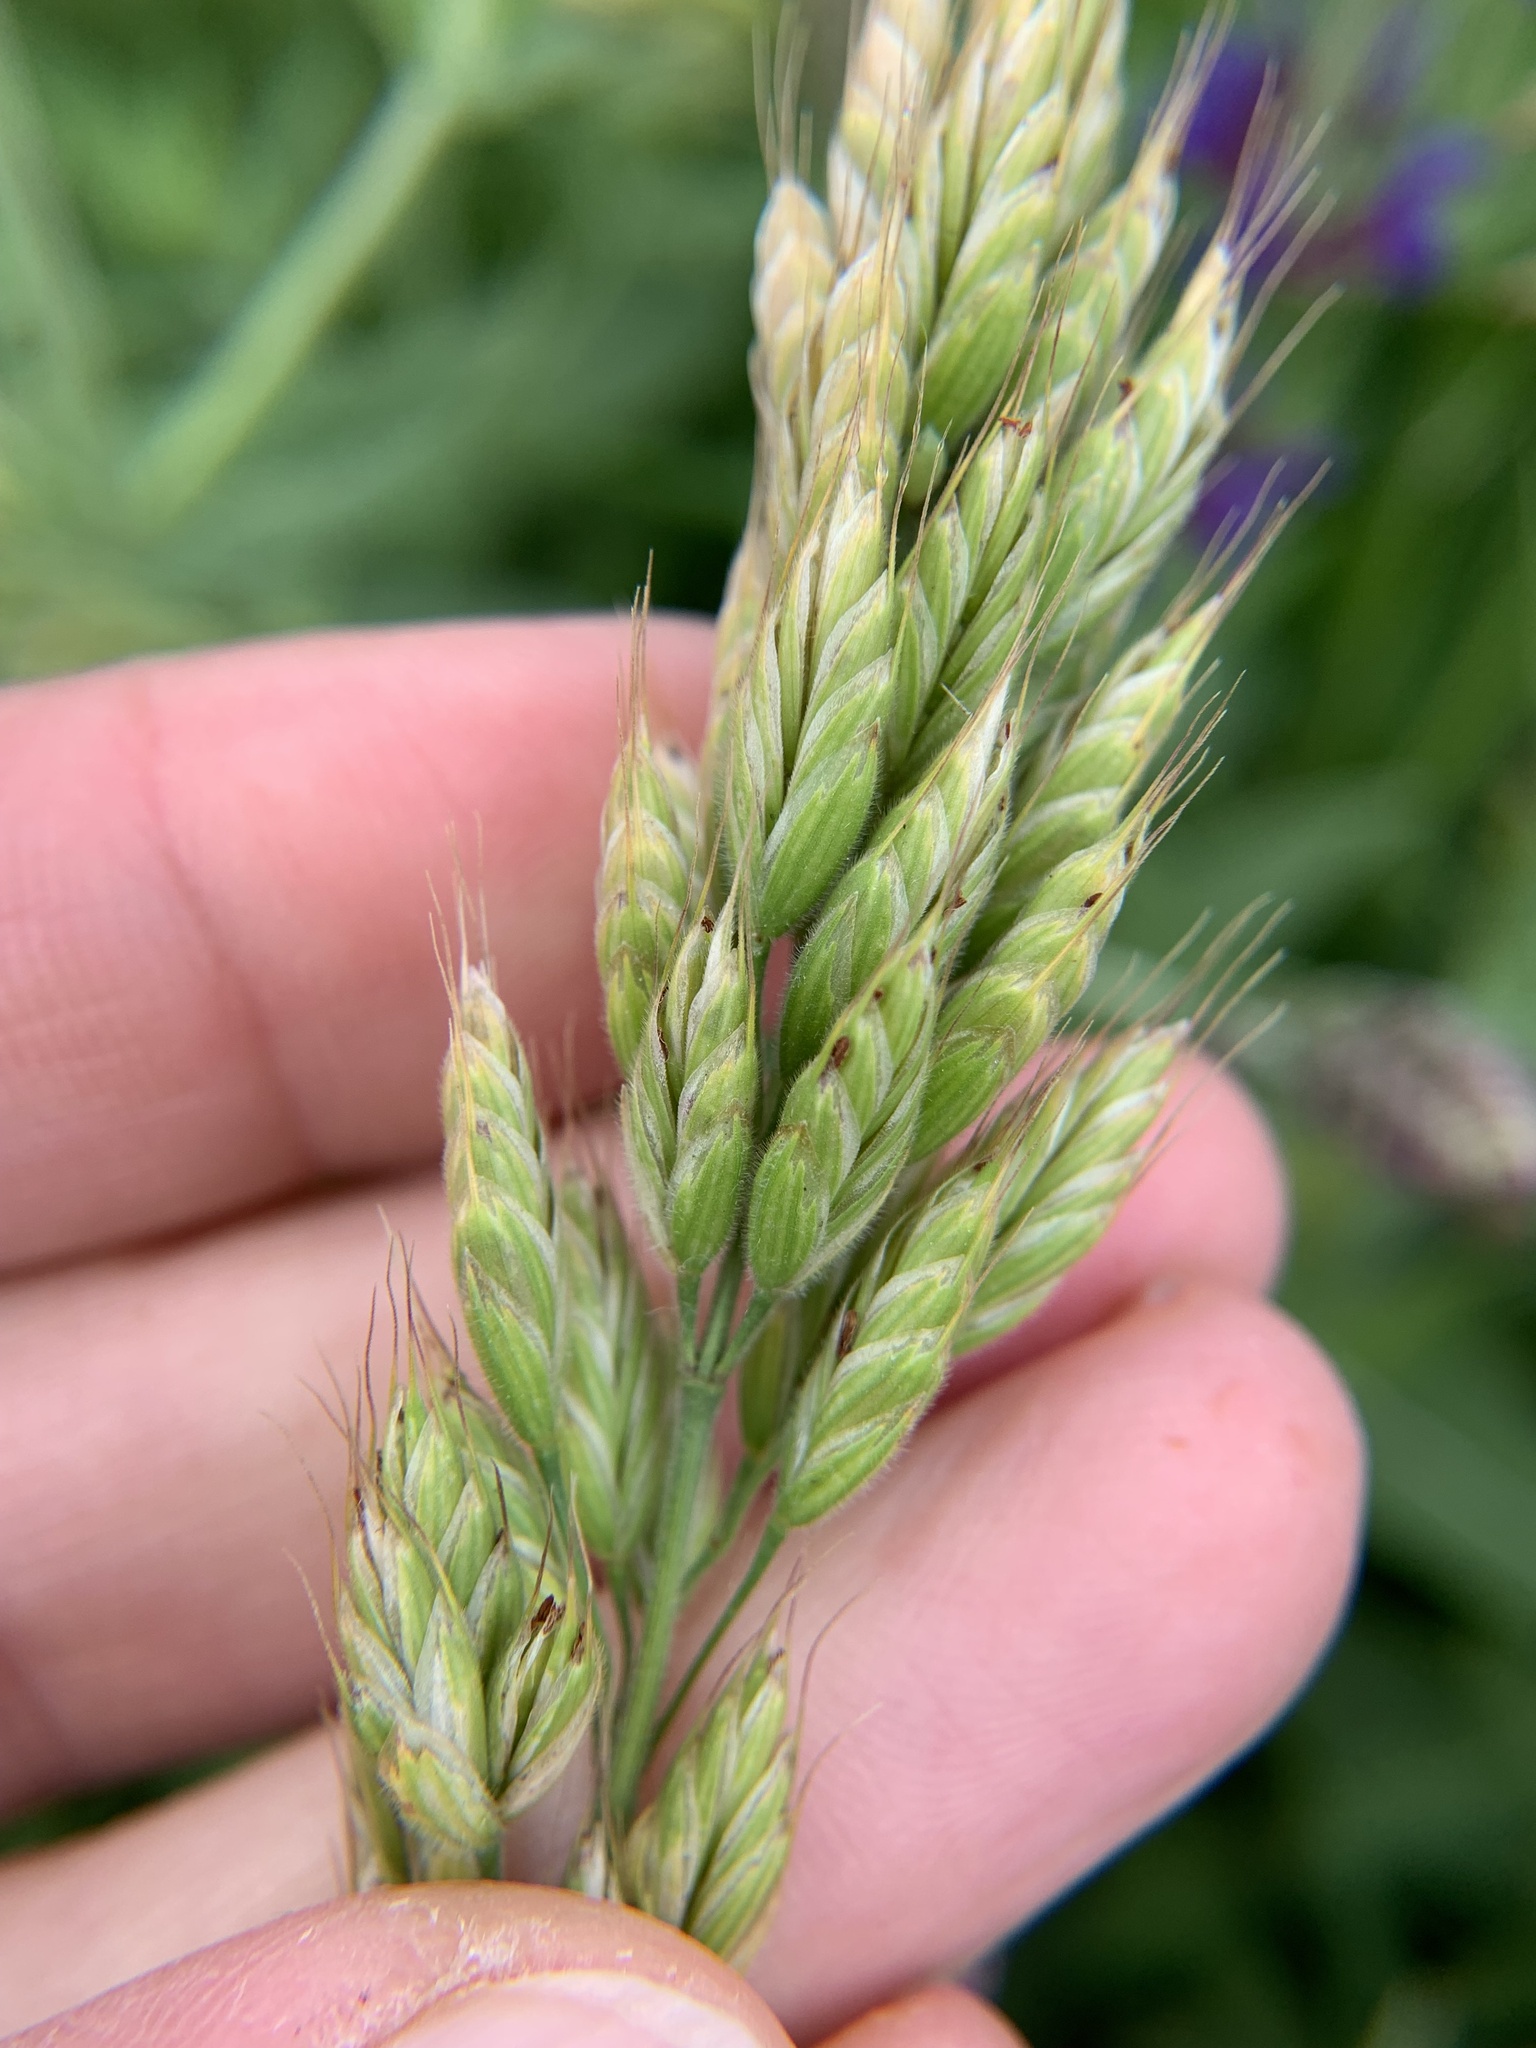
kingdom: Plantae
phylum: Tracheophyta
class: Liliopsida
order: Poales
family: Poaceae
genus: Bromus
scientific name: Bromus hordeaceus
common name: Soft brome
